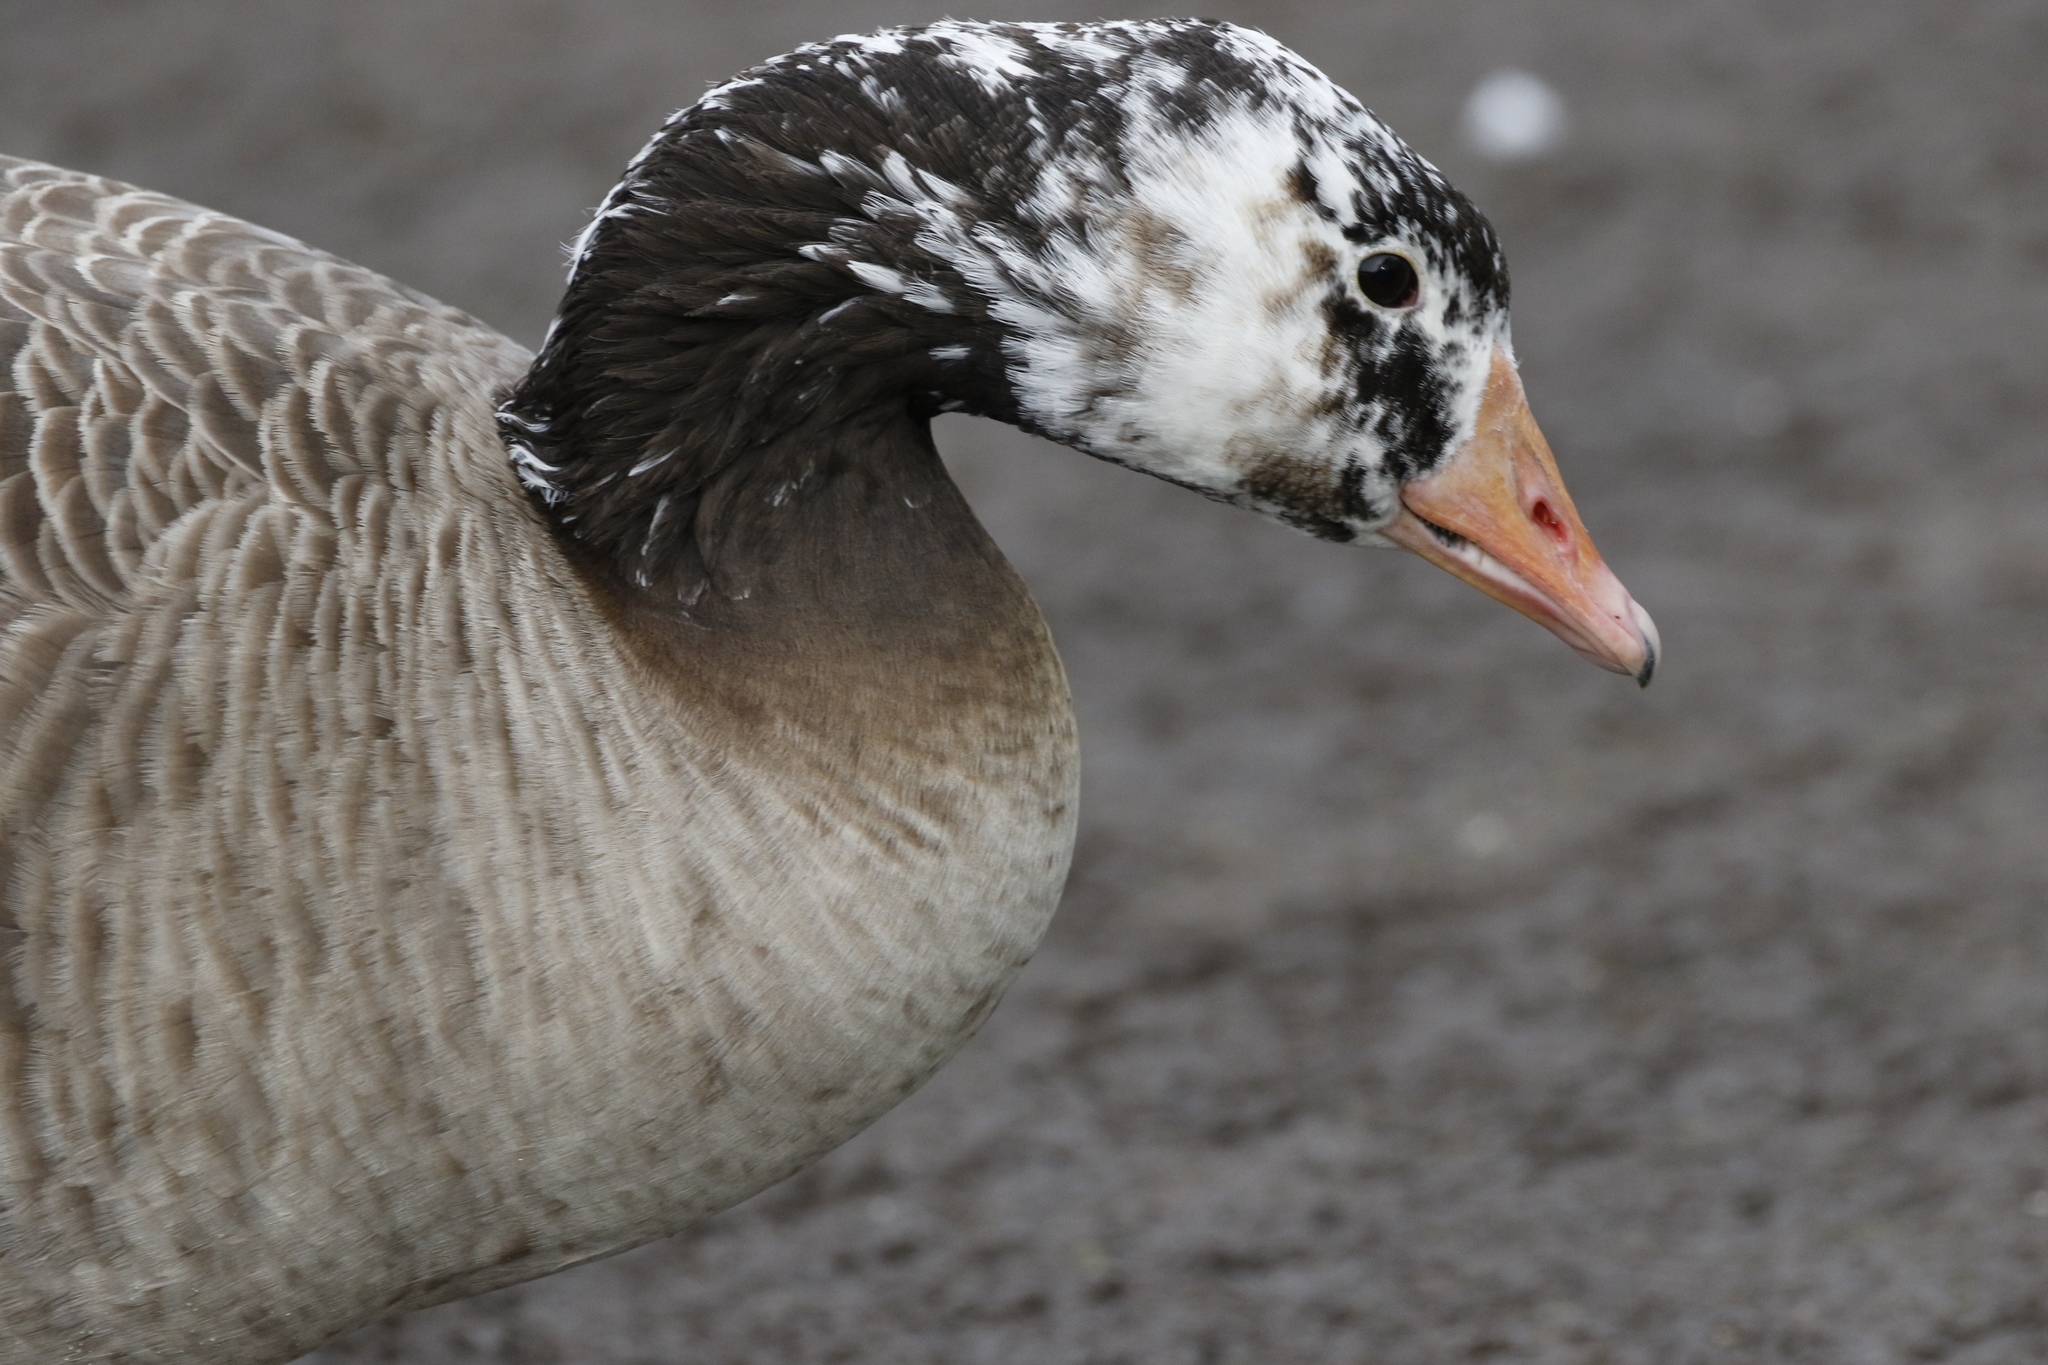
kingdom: Animalia
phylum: Chordata
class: Aves
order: Anseriformes
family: Anatidae
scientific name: Anatidae
